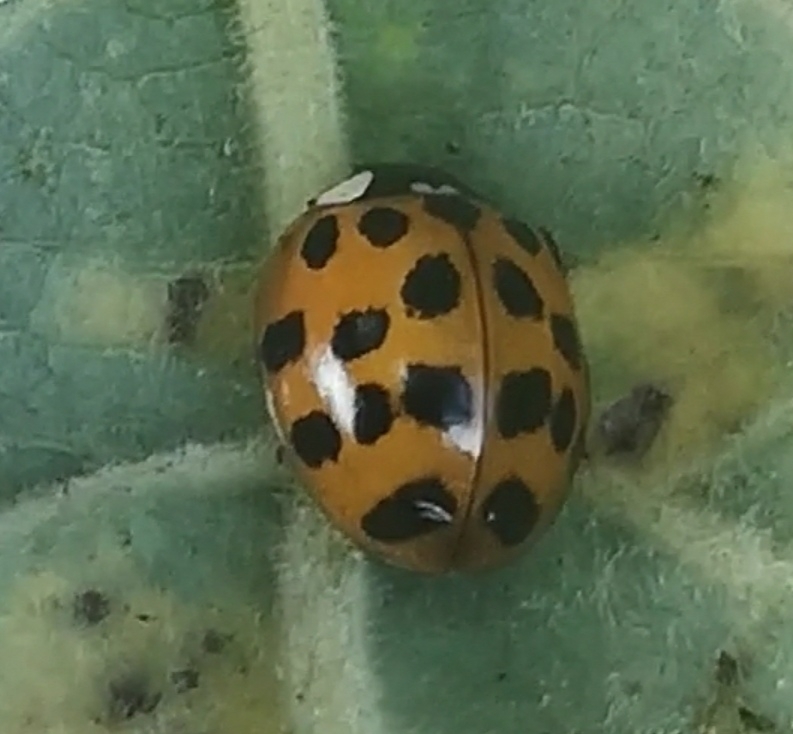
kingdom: Animalia
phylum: Arthropoda
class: Insecta
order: Coleoptera
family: Coccinellidae
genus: Harmonia
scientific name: Harmonia axyridis
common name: Harlequin ladybird
